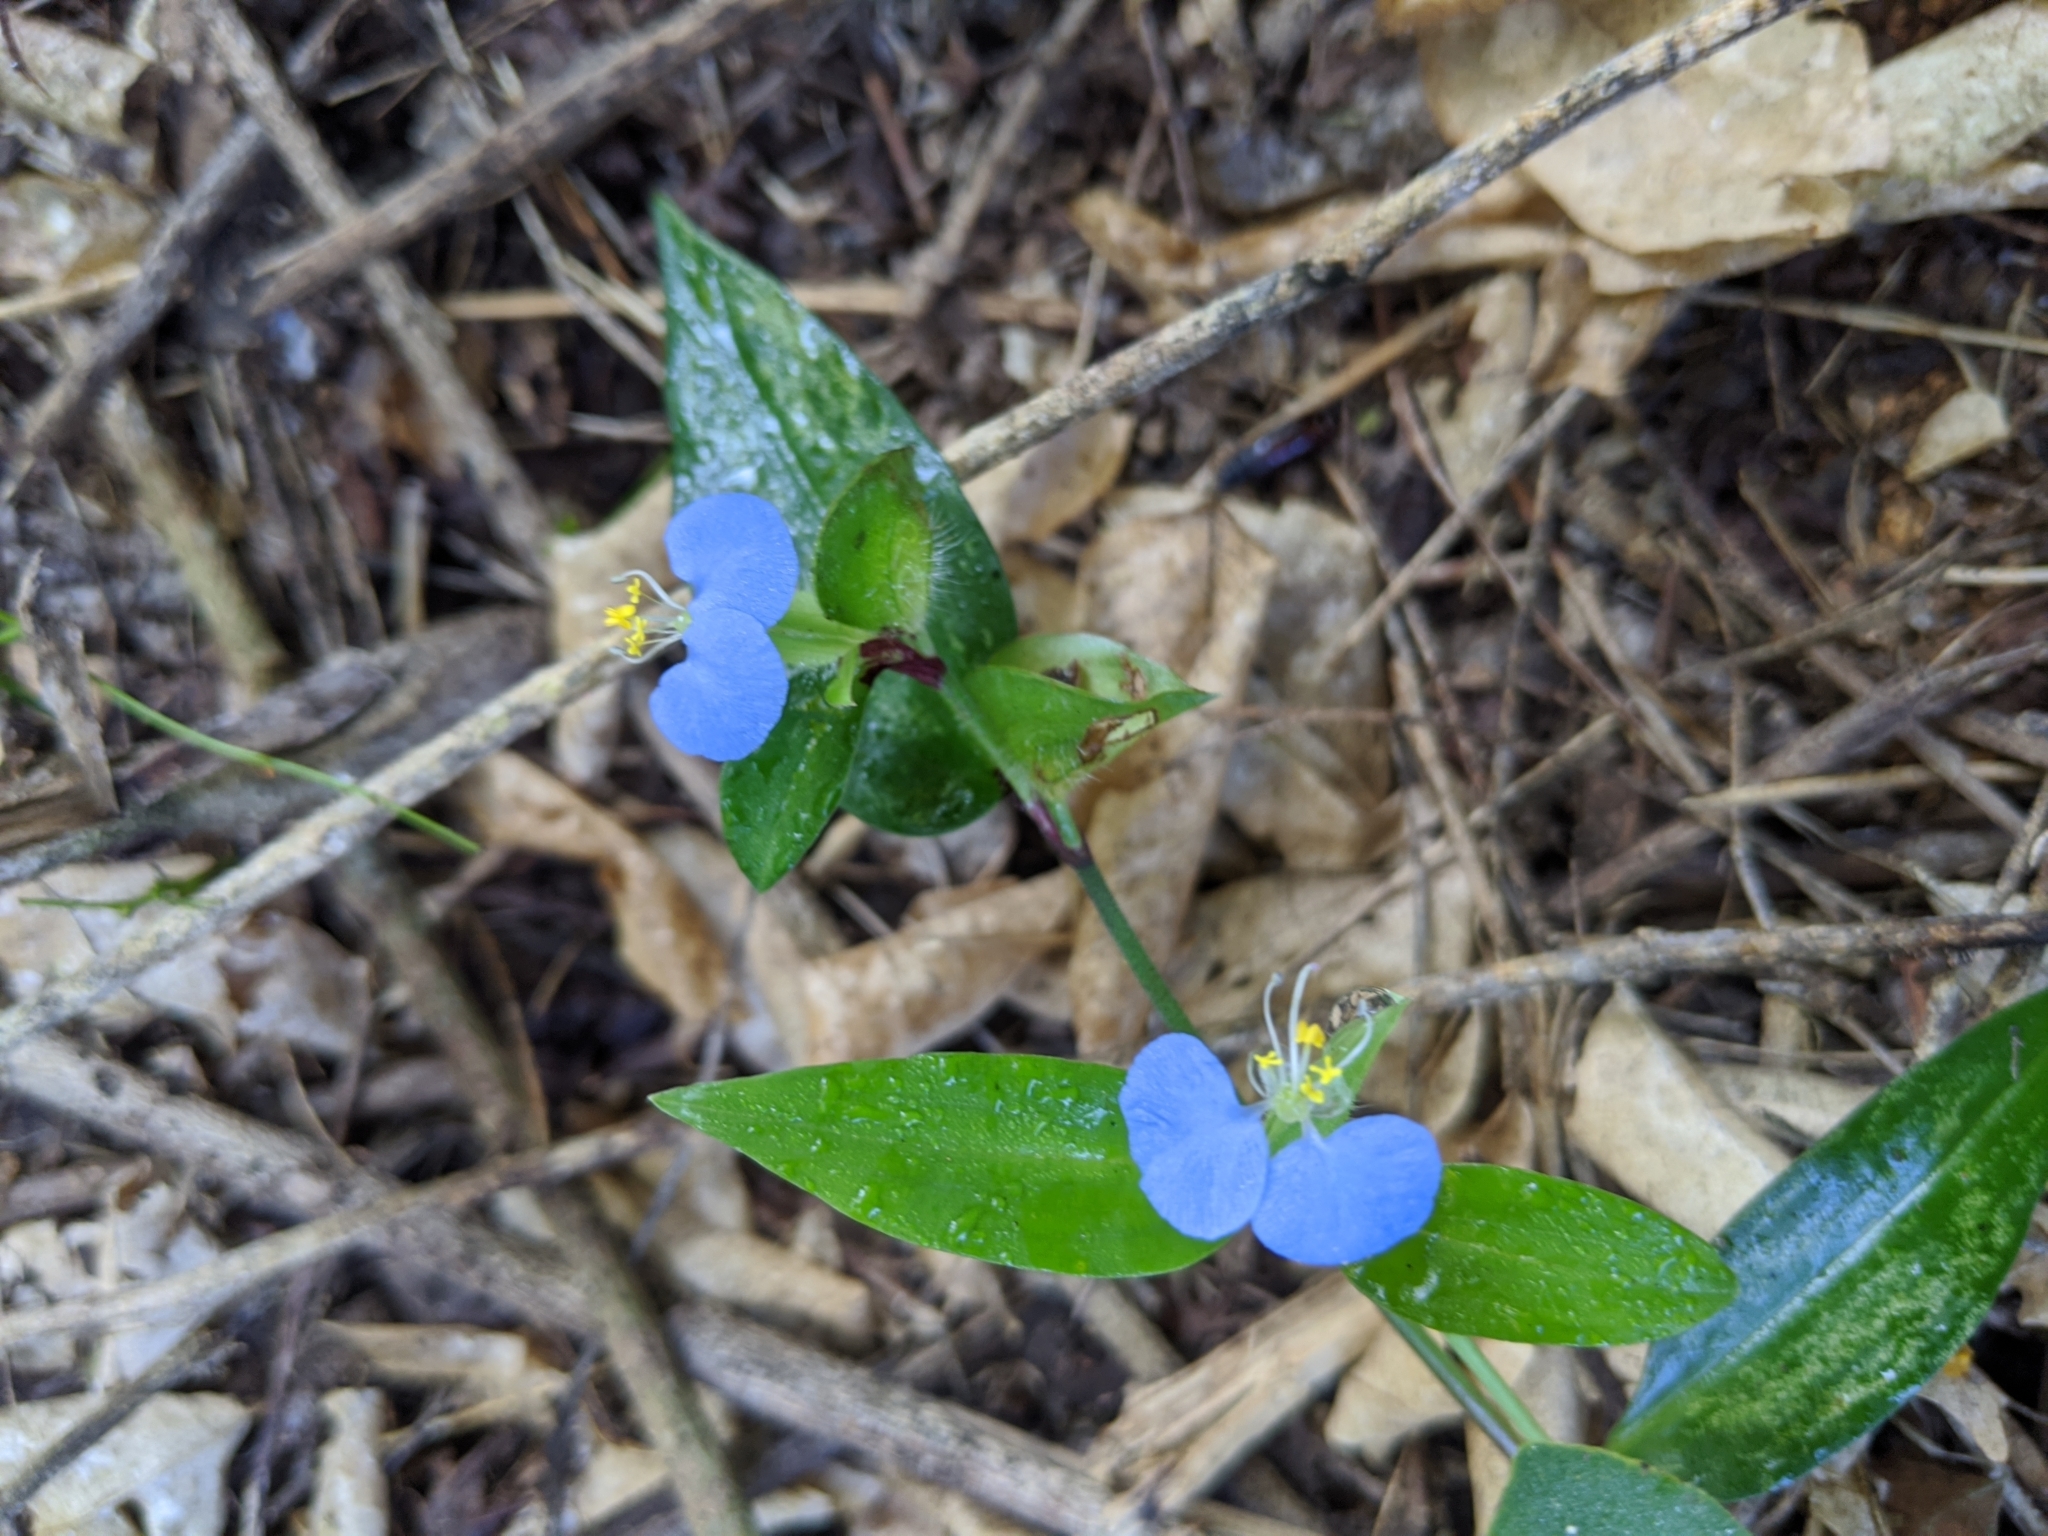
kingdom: Plantae
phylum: Tracheophyta
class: Liliopsida
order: Commelinales
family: Commelinaceae
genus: Commelina
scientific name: Commelina erecta
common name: Blousel blommetjie
